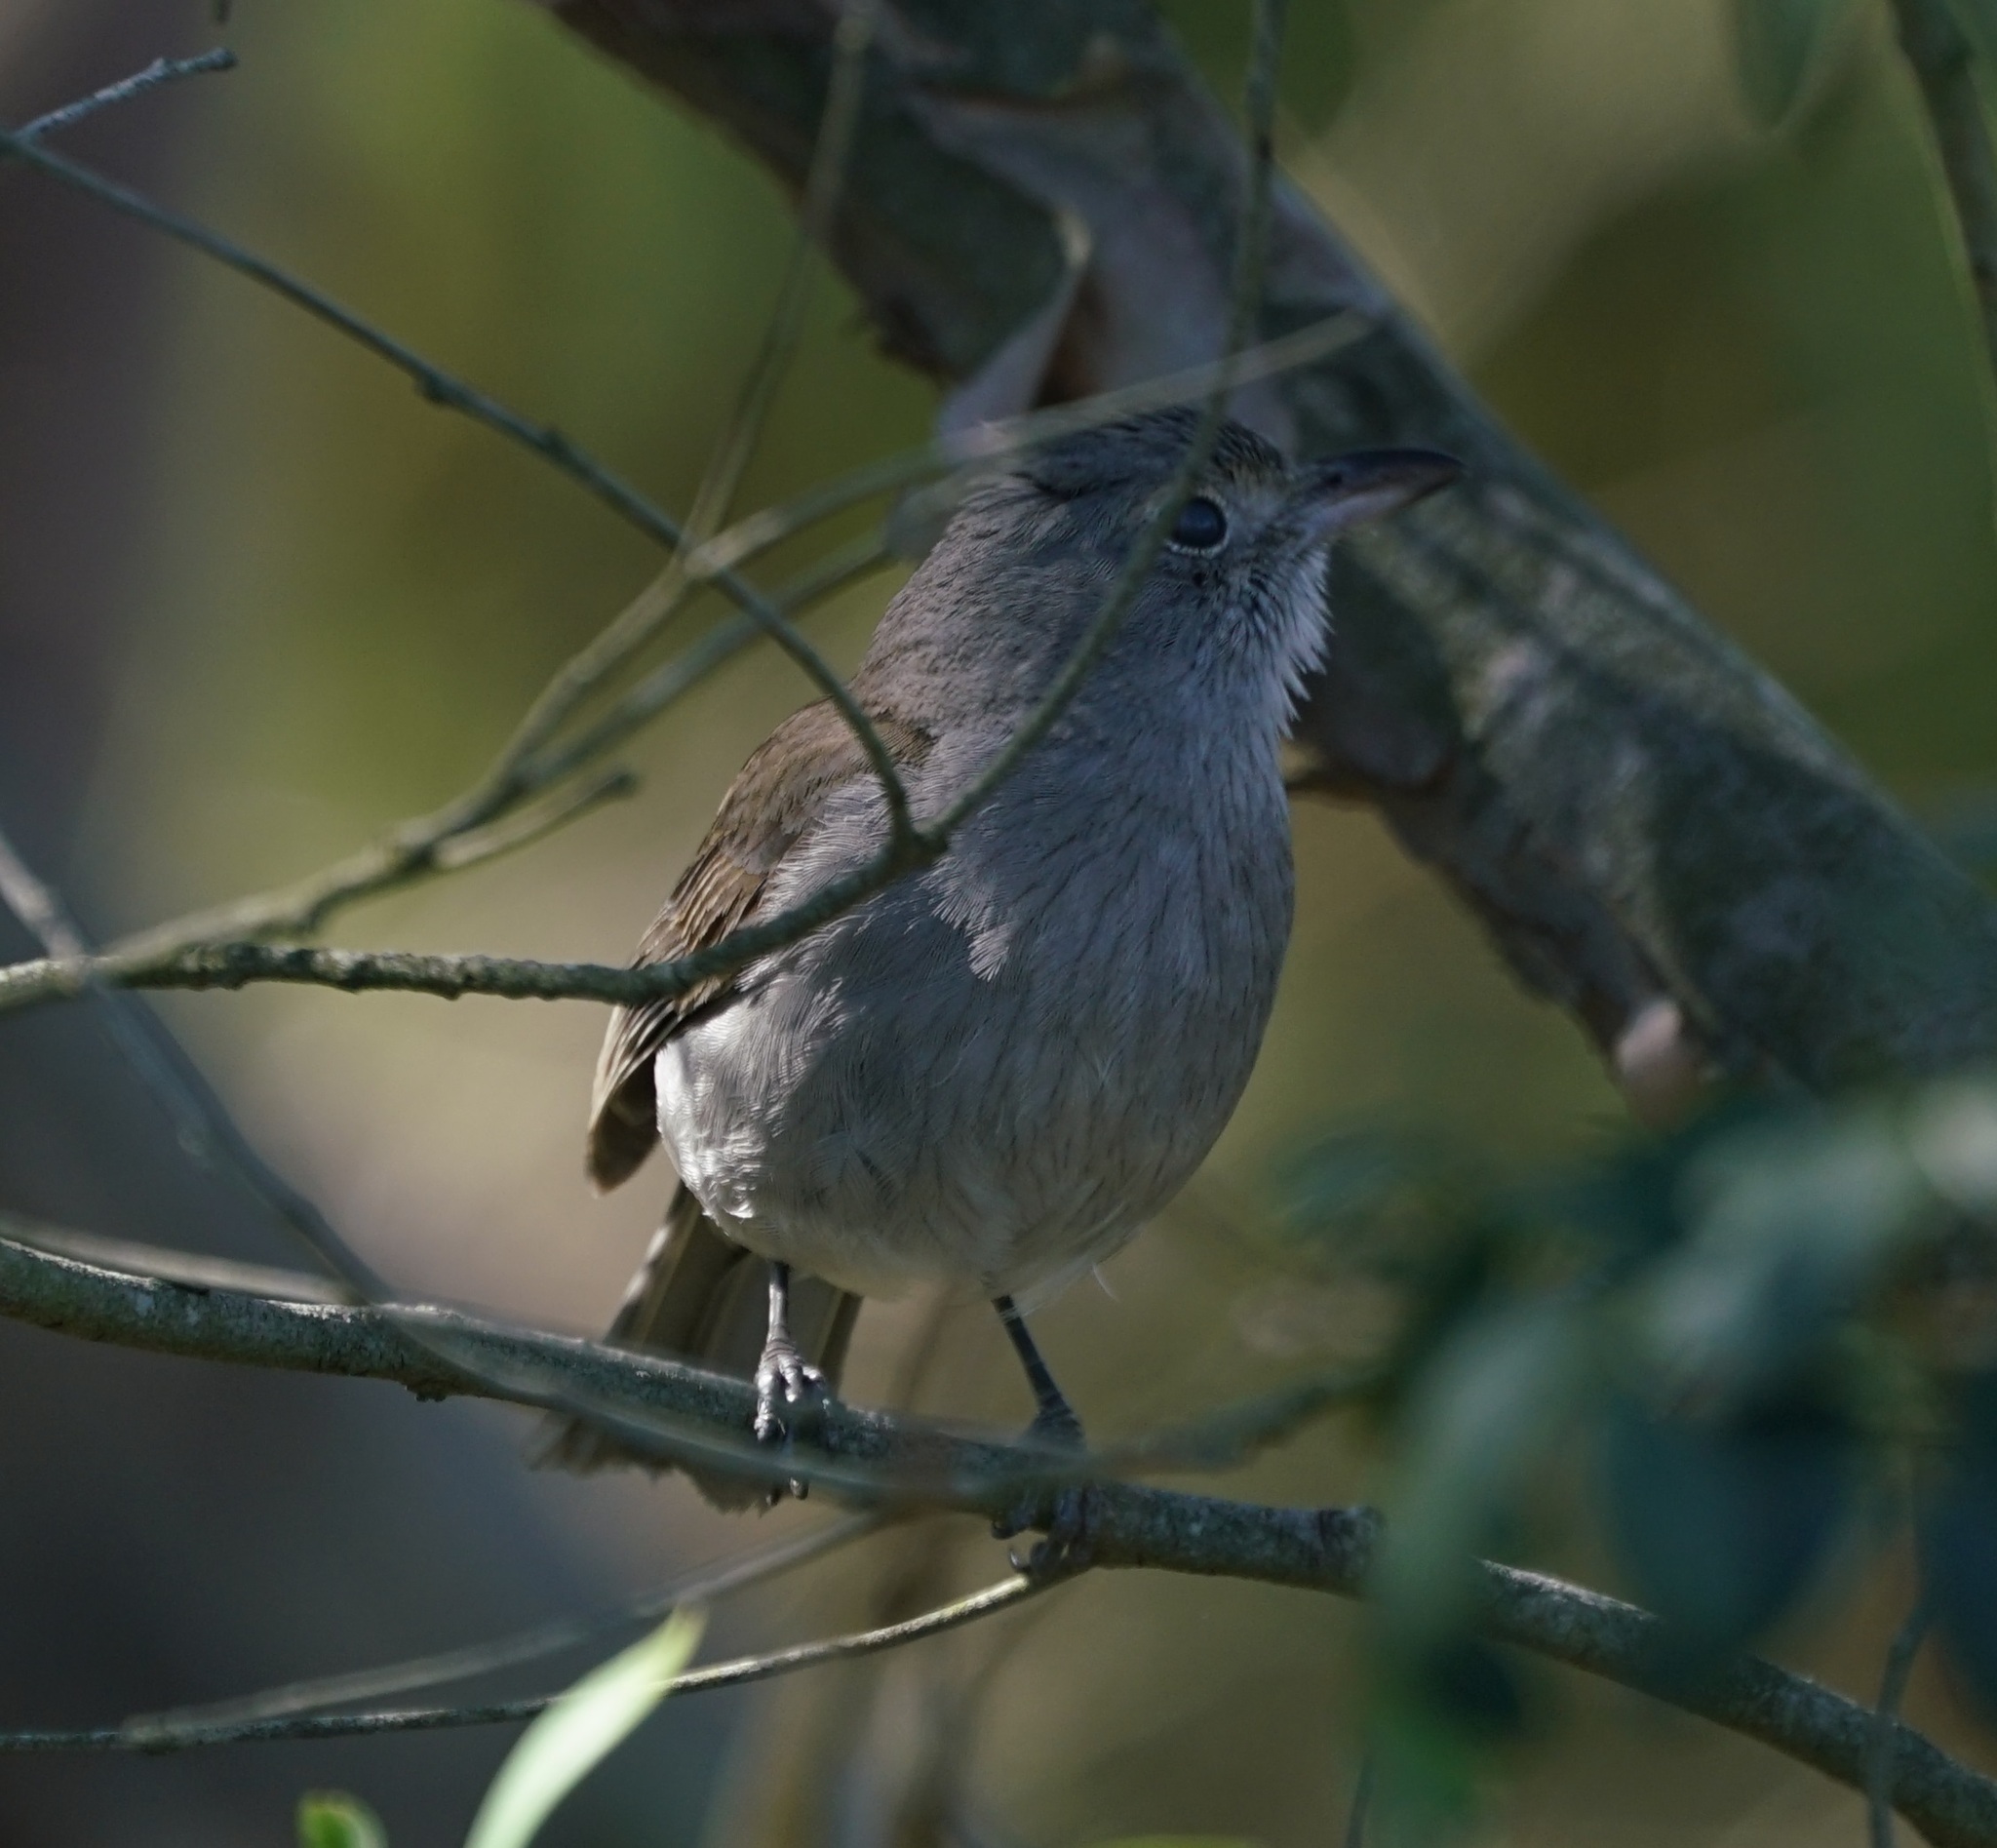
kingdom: Animalia
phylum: Chordata
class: Aves
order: Passeriformes
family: Pachycephalidae
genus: Colluricincla
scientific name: Colluricincla harmonica
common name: Grey shrikethrush
